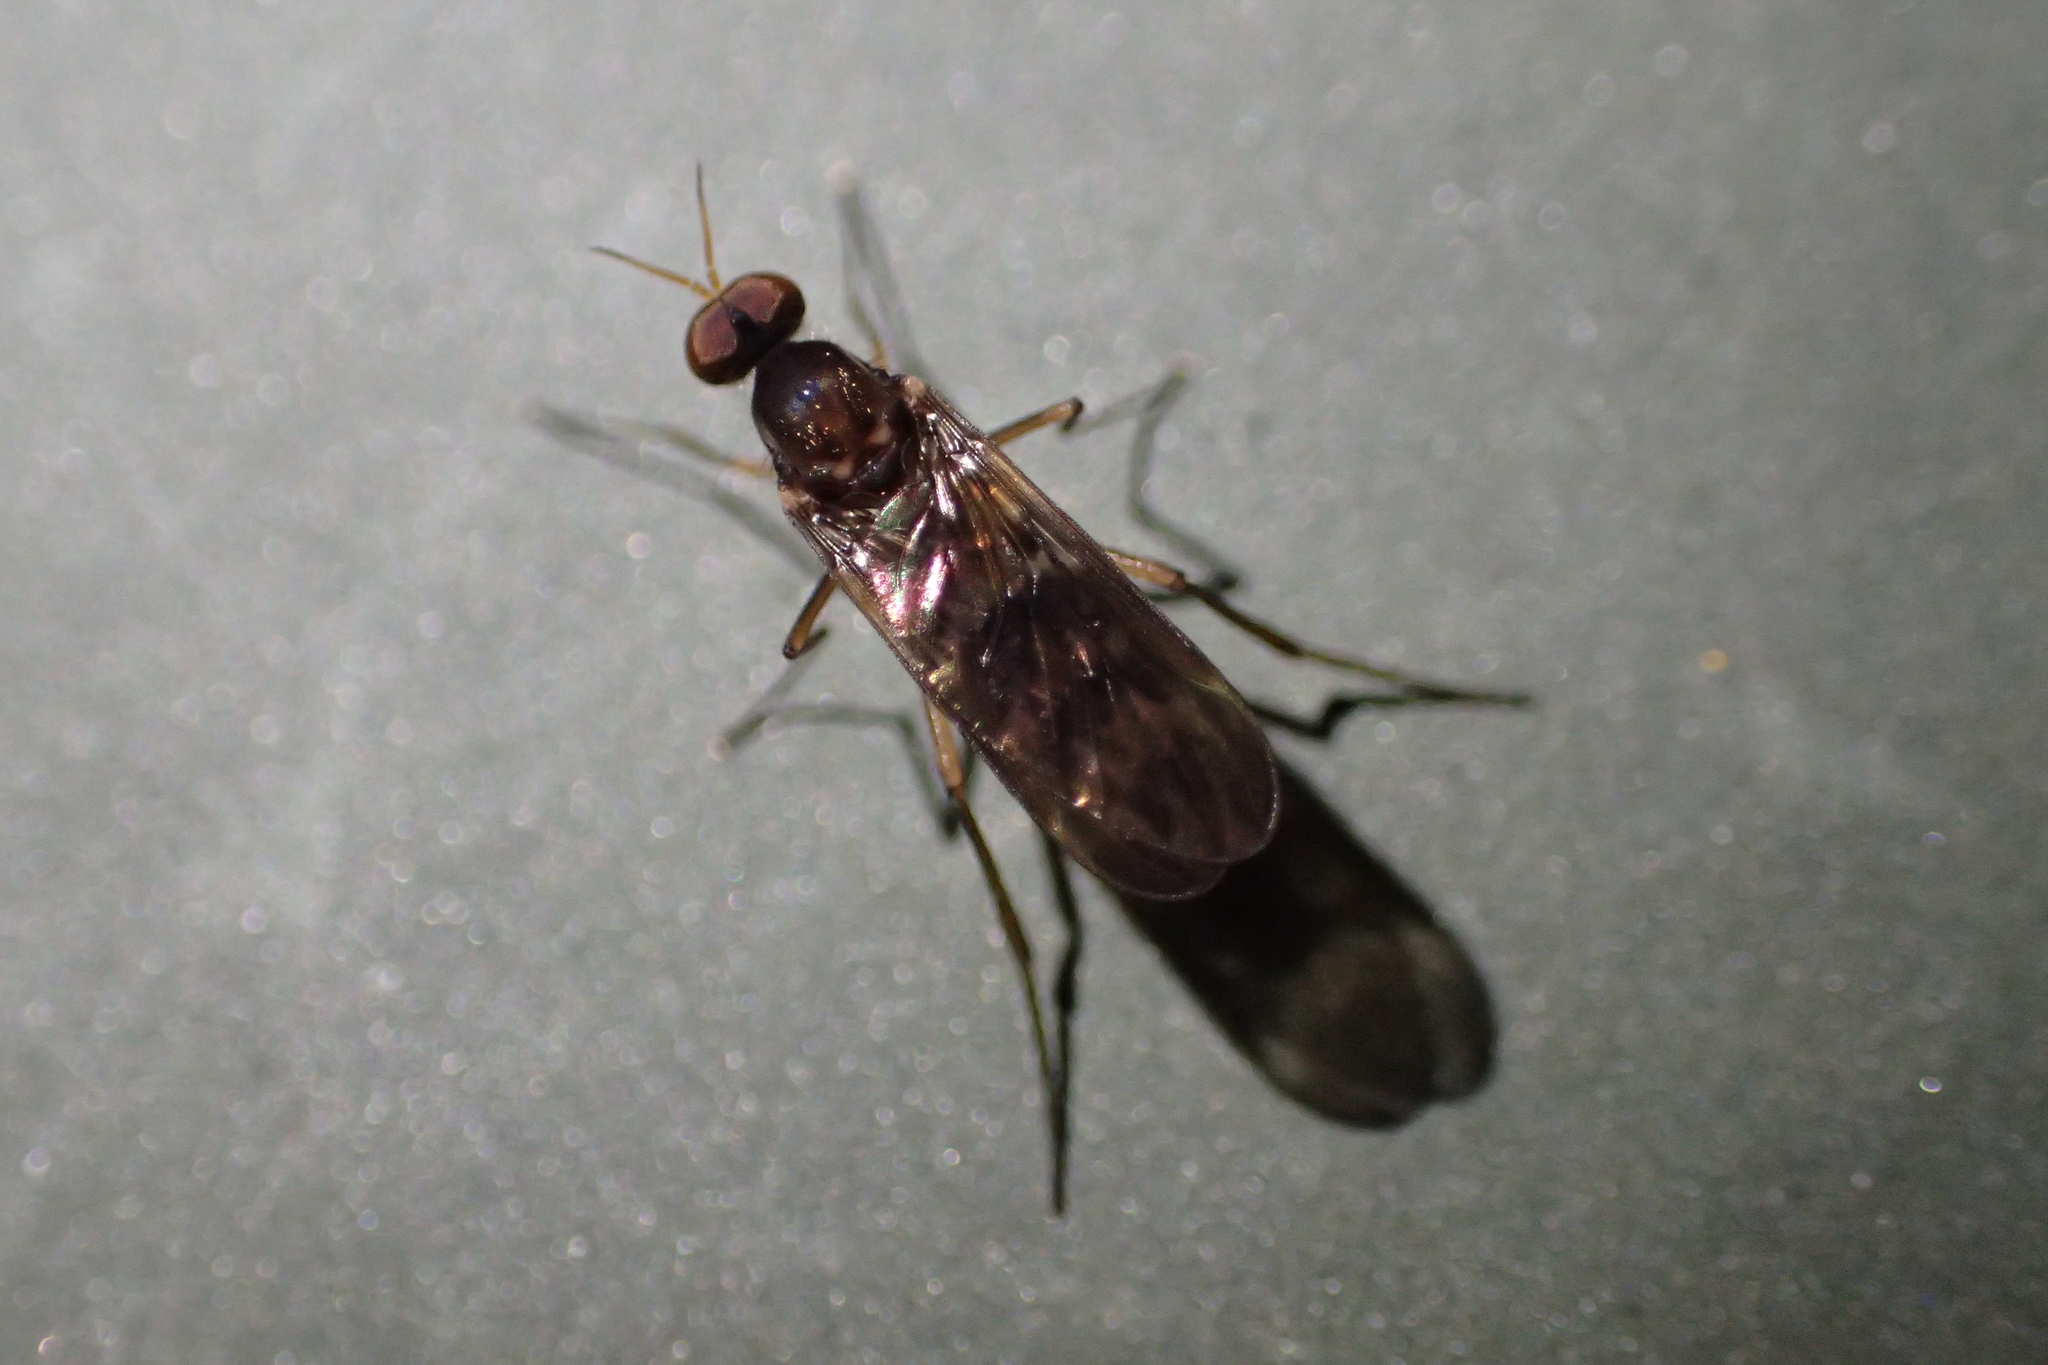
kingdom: Animalia
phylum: Arthropoda
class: Insecta
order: Diptera
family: Anisopodidae
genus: Sylvicola
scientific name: Sylvicola neozelandicus
